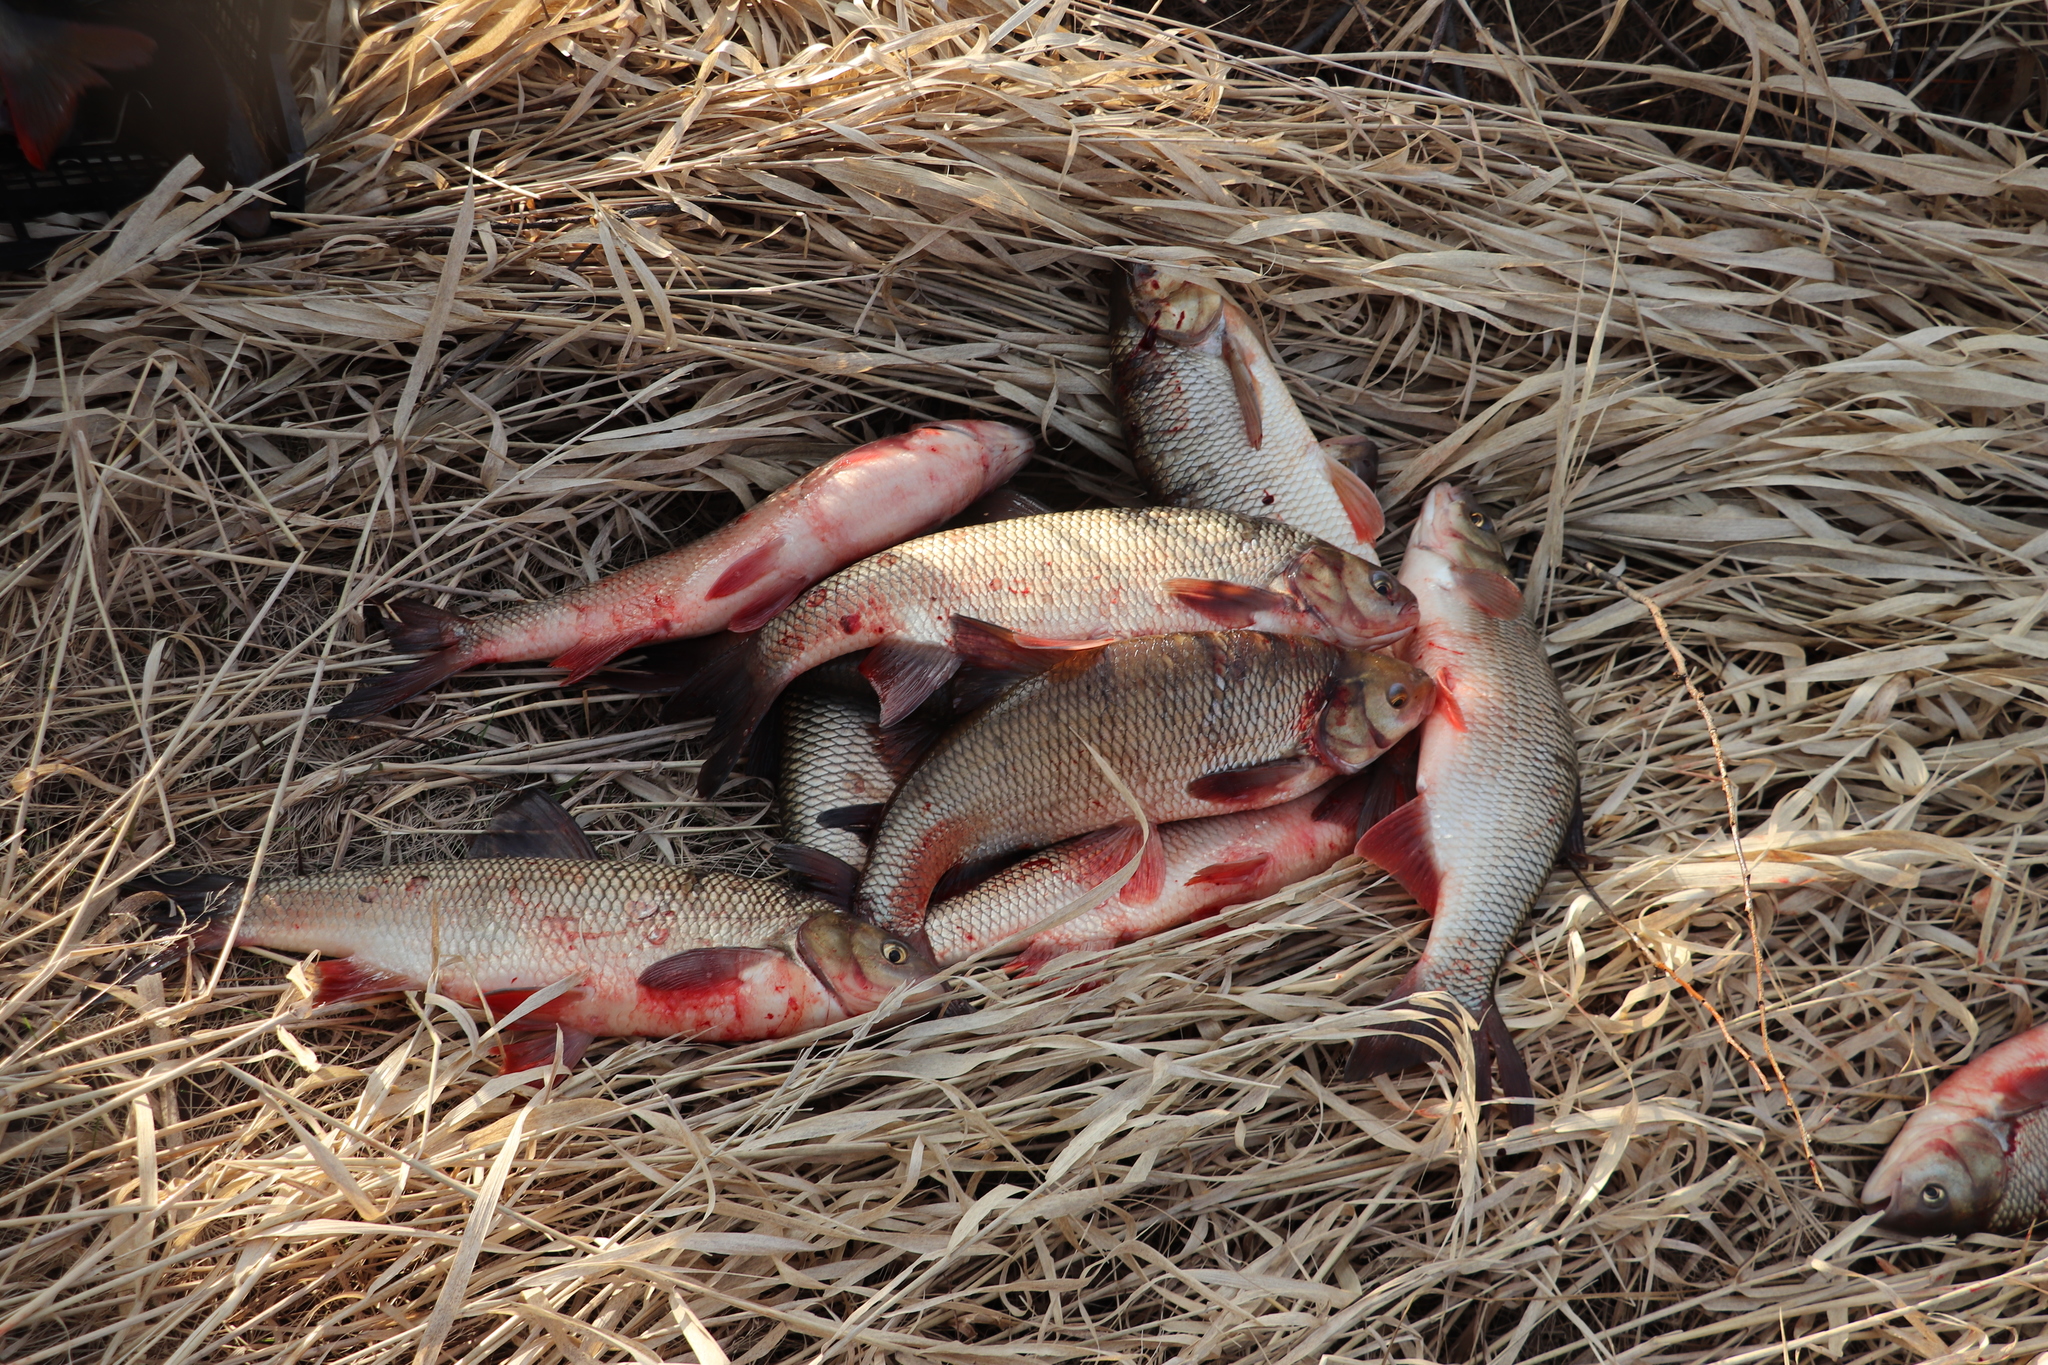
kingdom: Animalia
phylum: Chordata
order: Cypriniformes
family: Cyprinidae
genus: Leuciscus
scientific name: Leuciscus idus
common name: Ide
